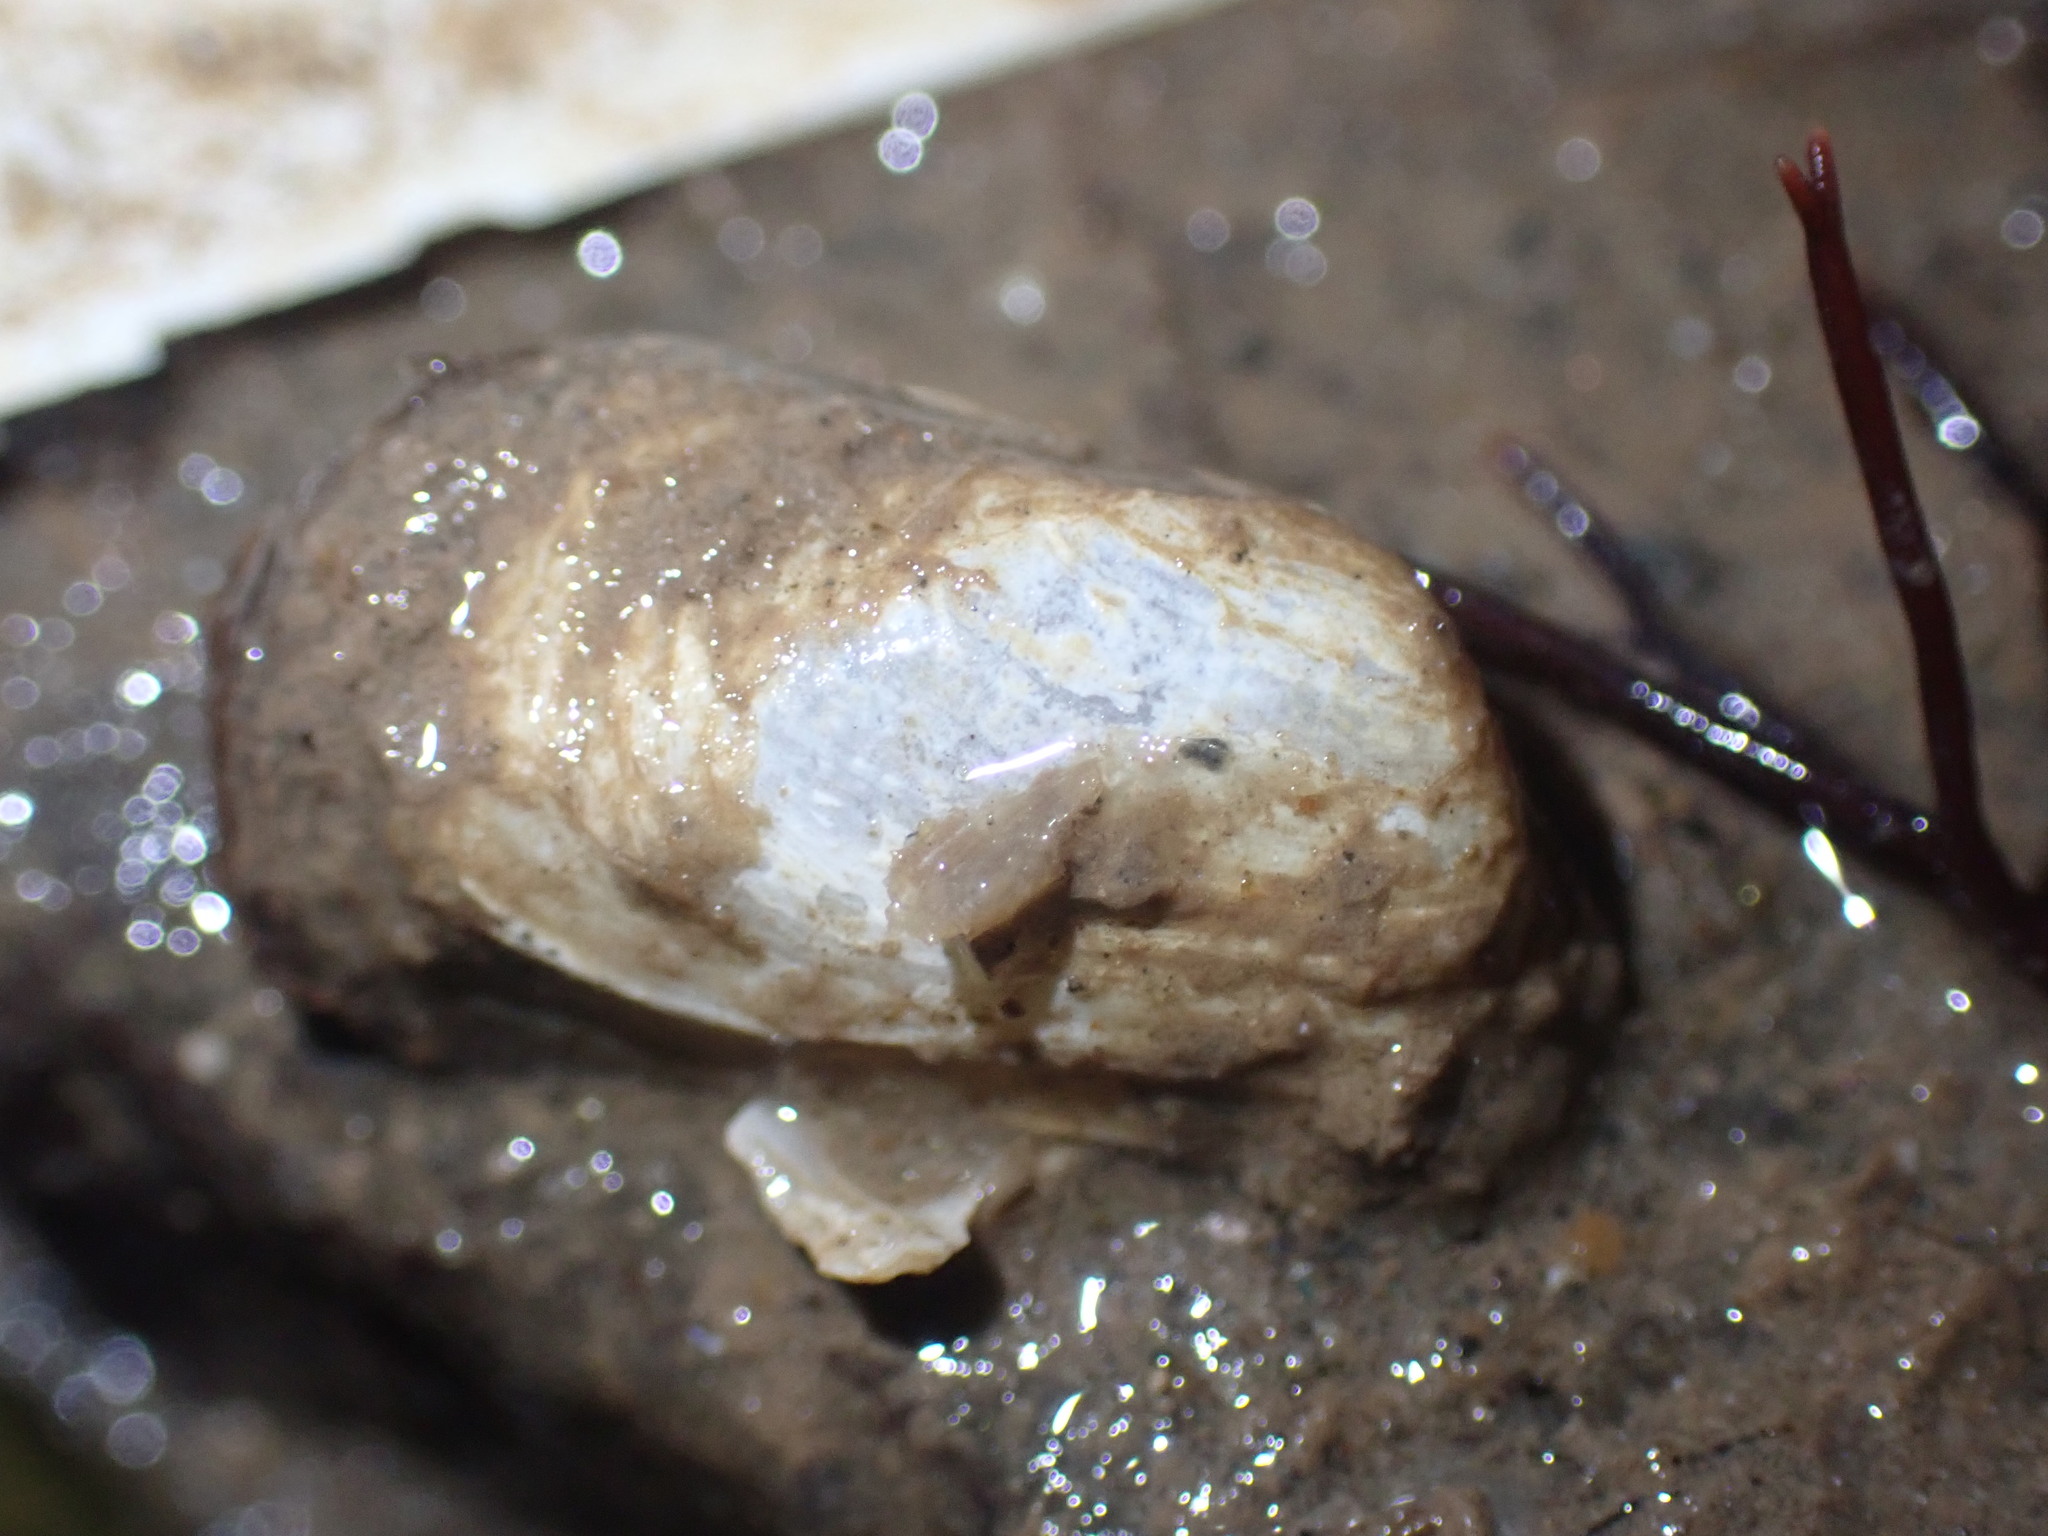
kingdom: Animalia
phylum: Mollusca
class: Bivalvia
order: Adapedonta
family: Hiatellidae
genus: Hiatella
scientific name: Hiatella arctica
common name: Arctic hiatella
